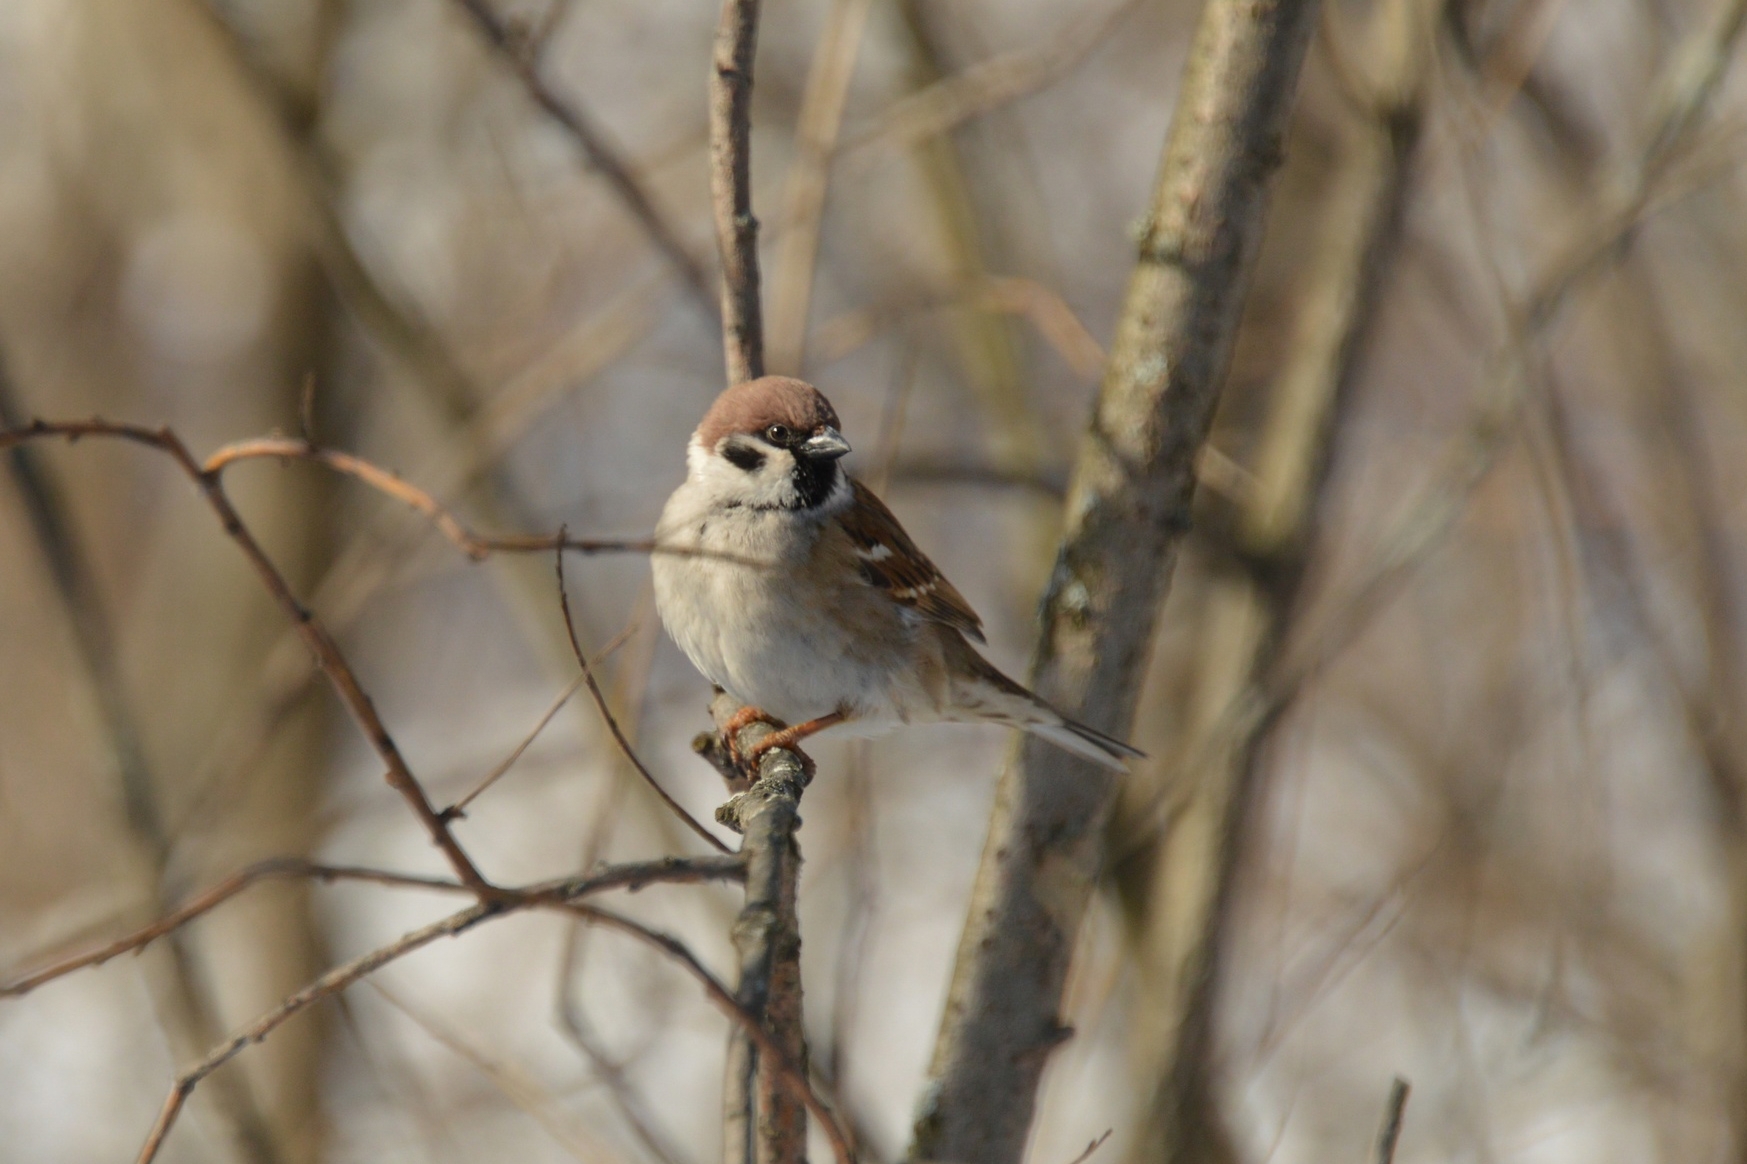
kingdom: Animalia
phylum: Chordata
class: Aves
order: Passeriformes
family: Passeridae
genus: Passer
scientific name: Passer montanus
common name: Eurasian tree sparrow
